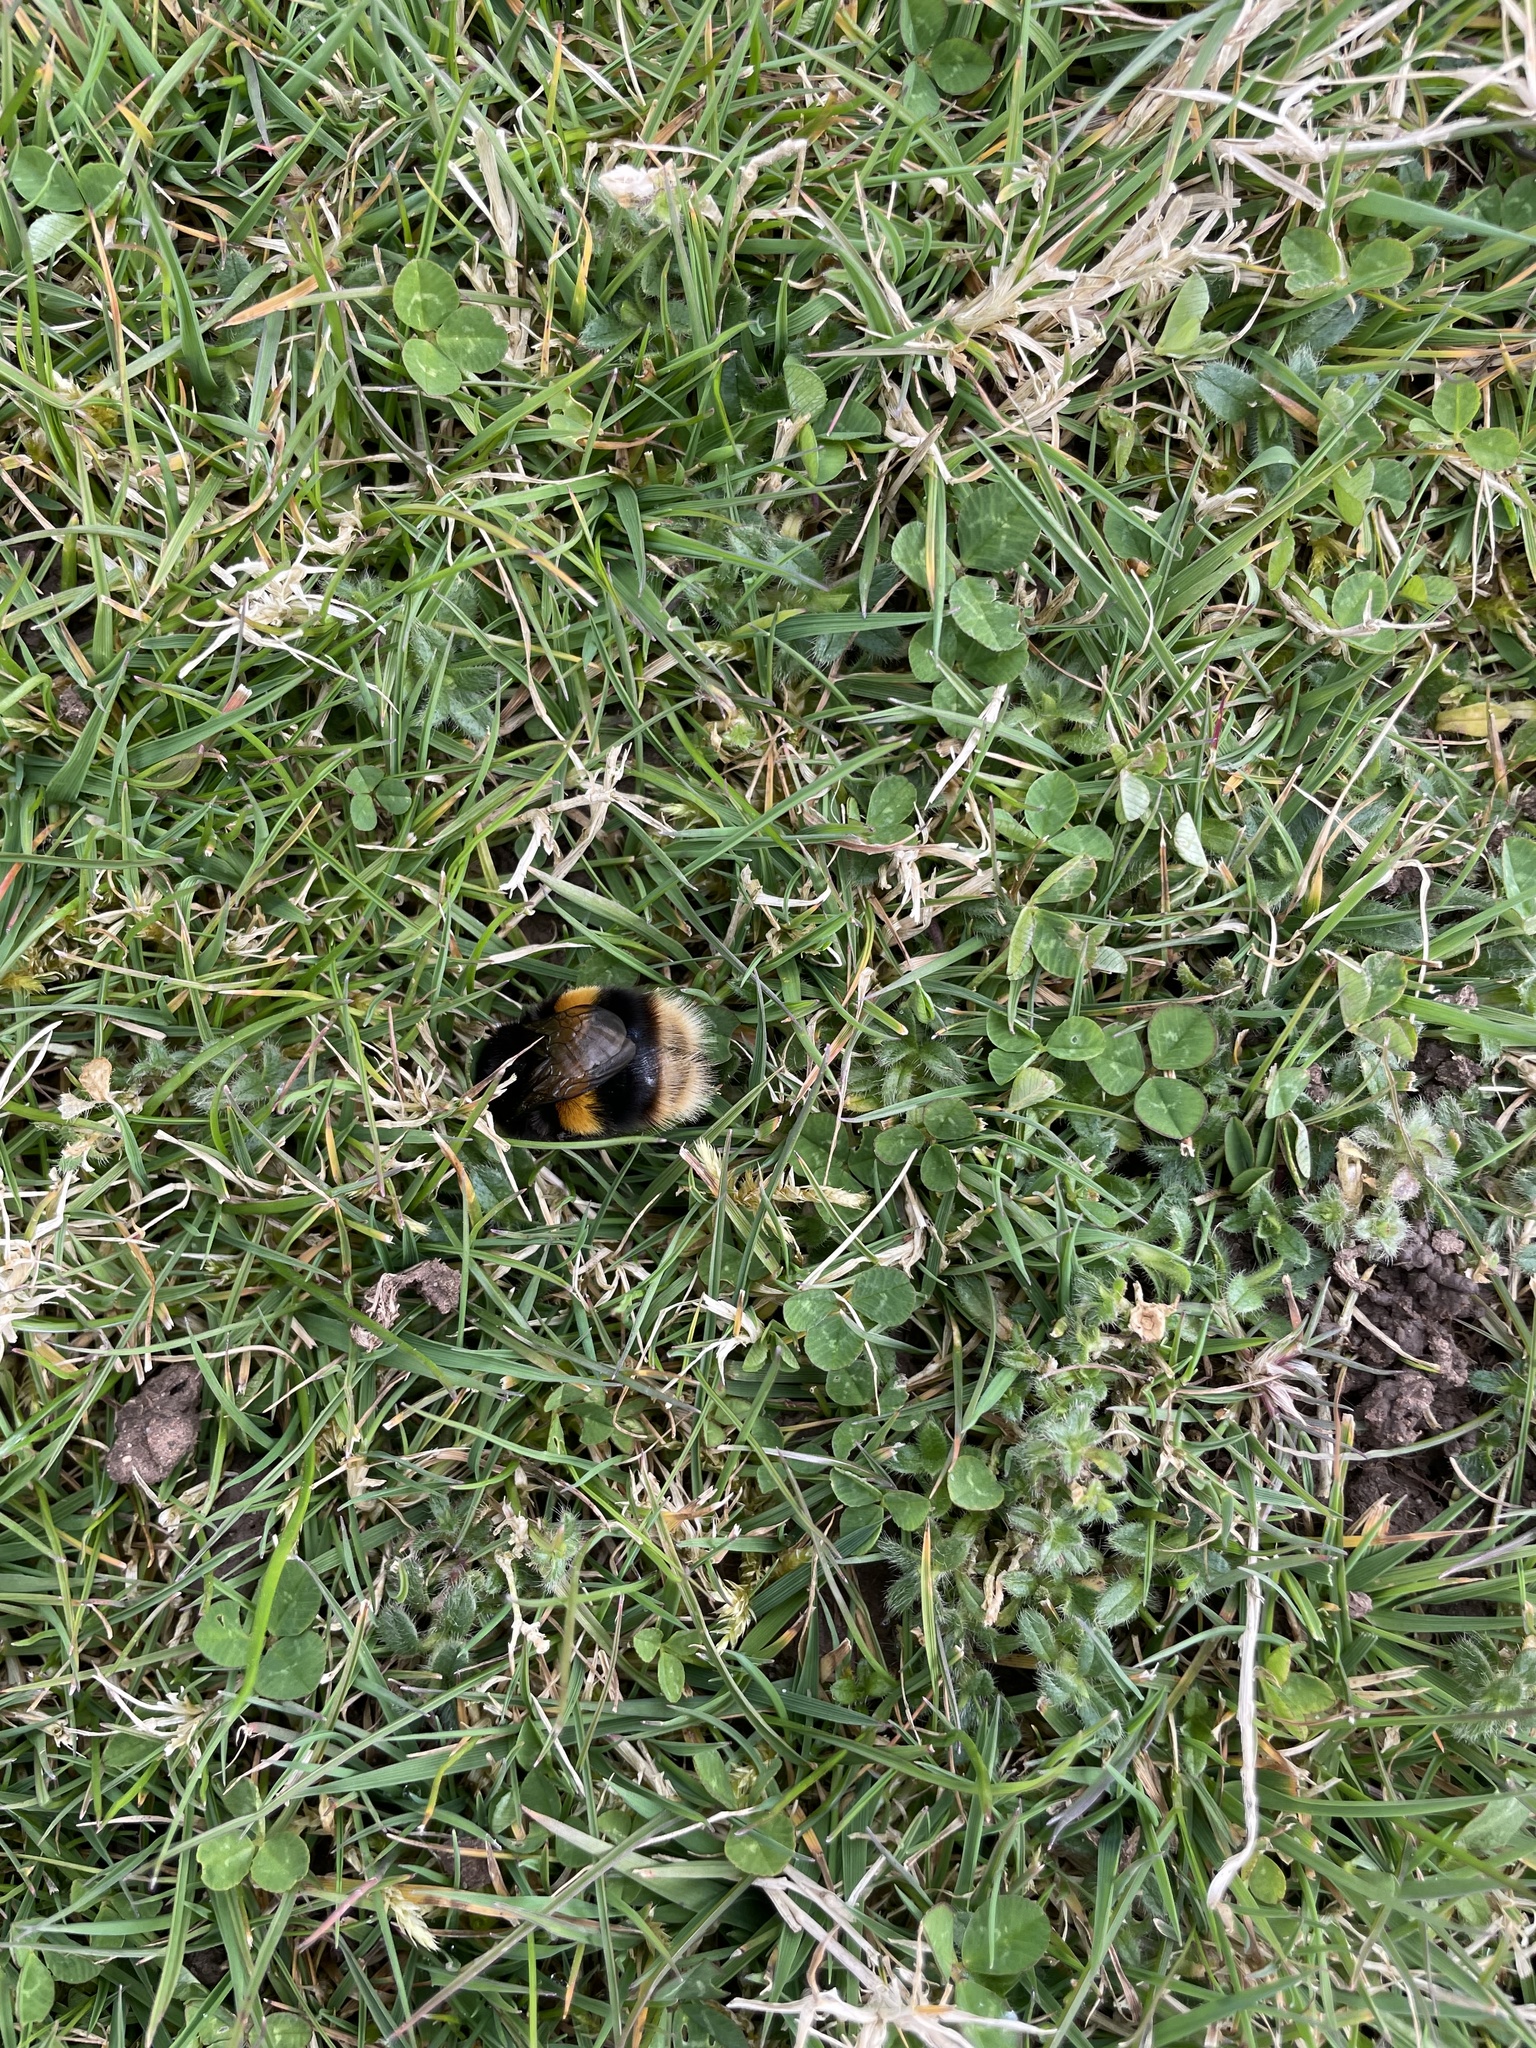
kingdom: Animalia
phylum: Arthropoda
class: Insecta
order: Hymenoptera
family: Apidae
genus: Bombus
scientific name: Bombus terrestris
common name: Buff-tailed bumblebee
